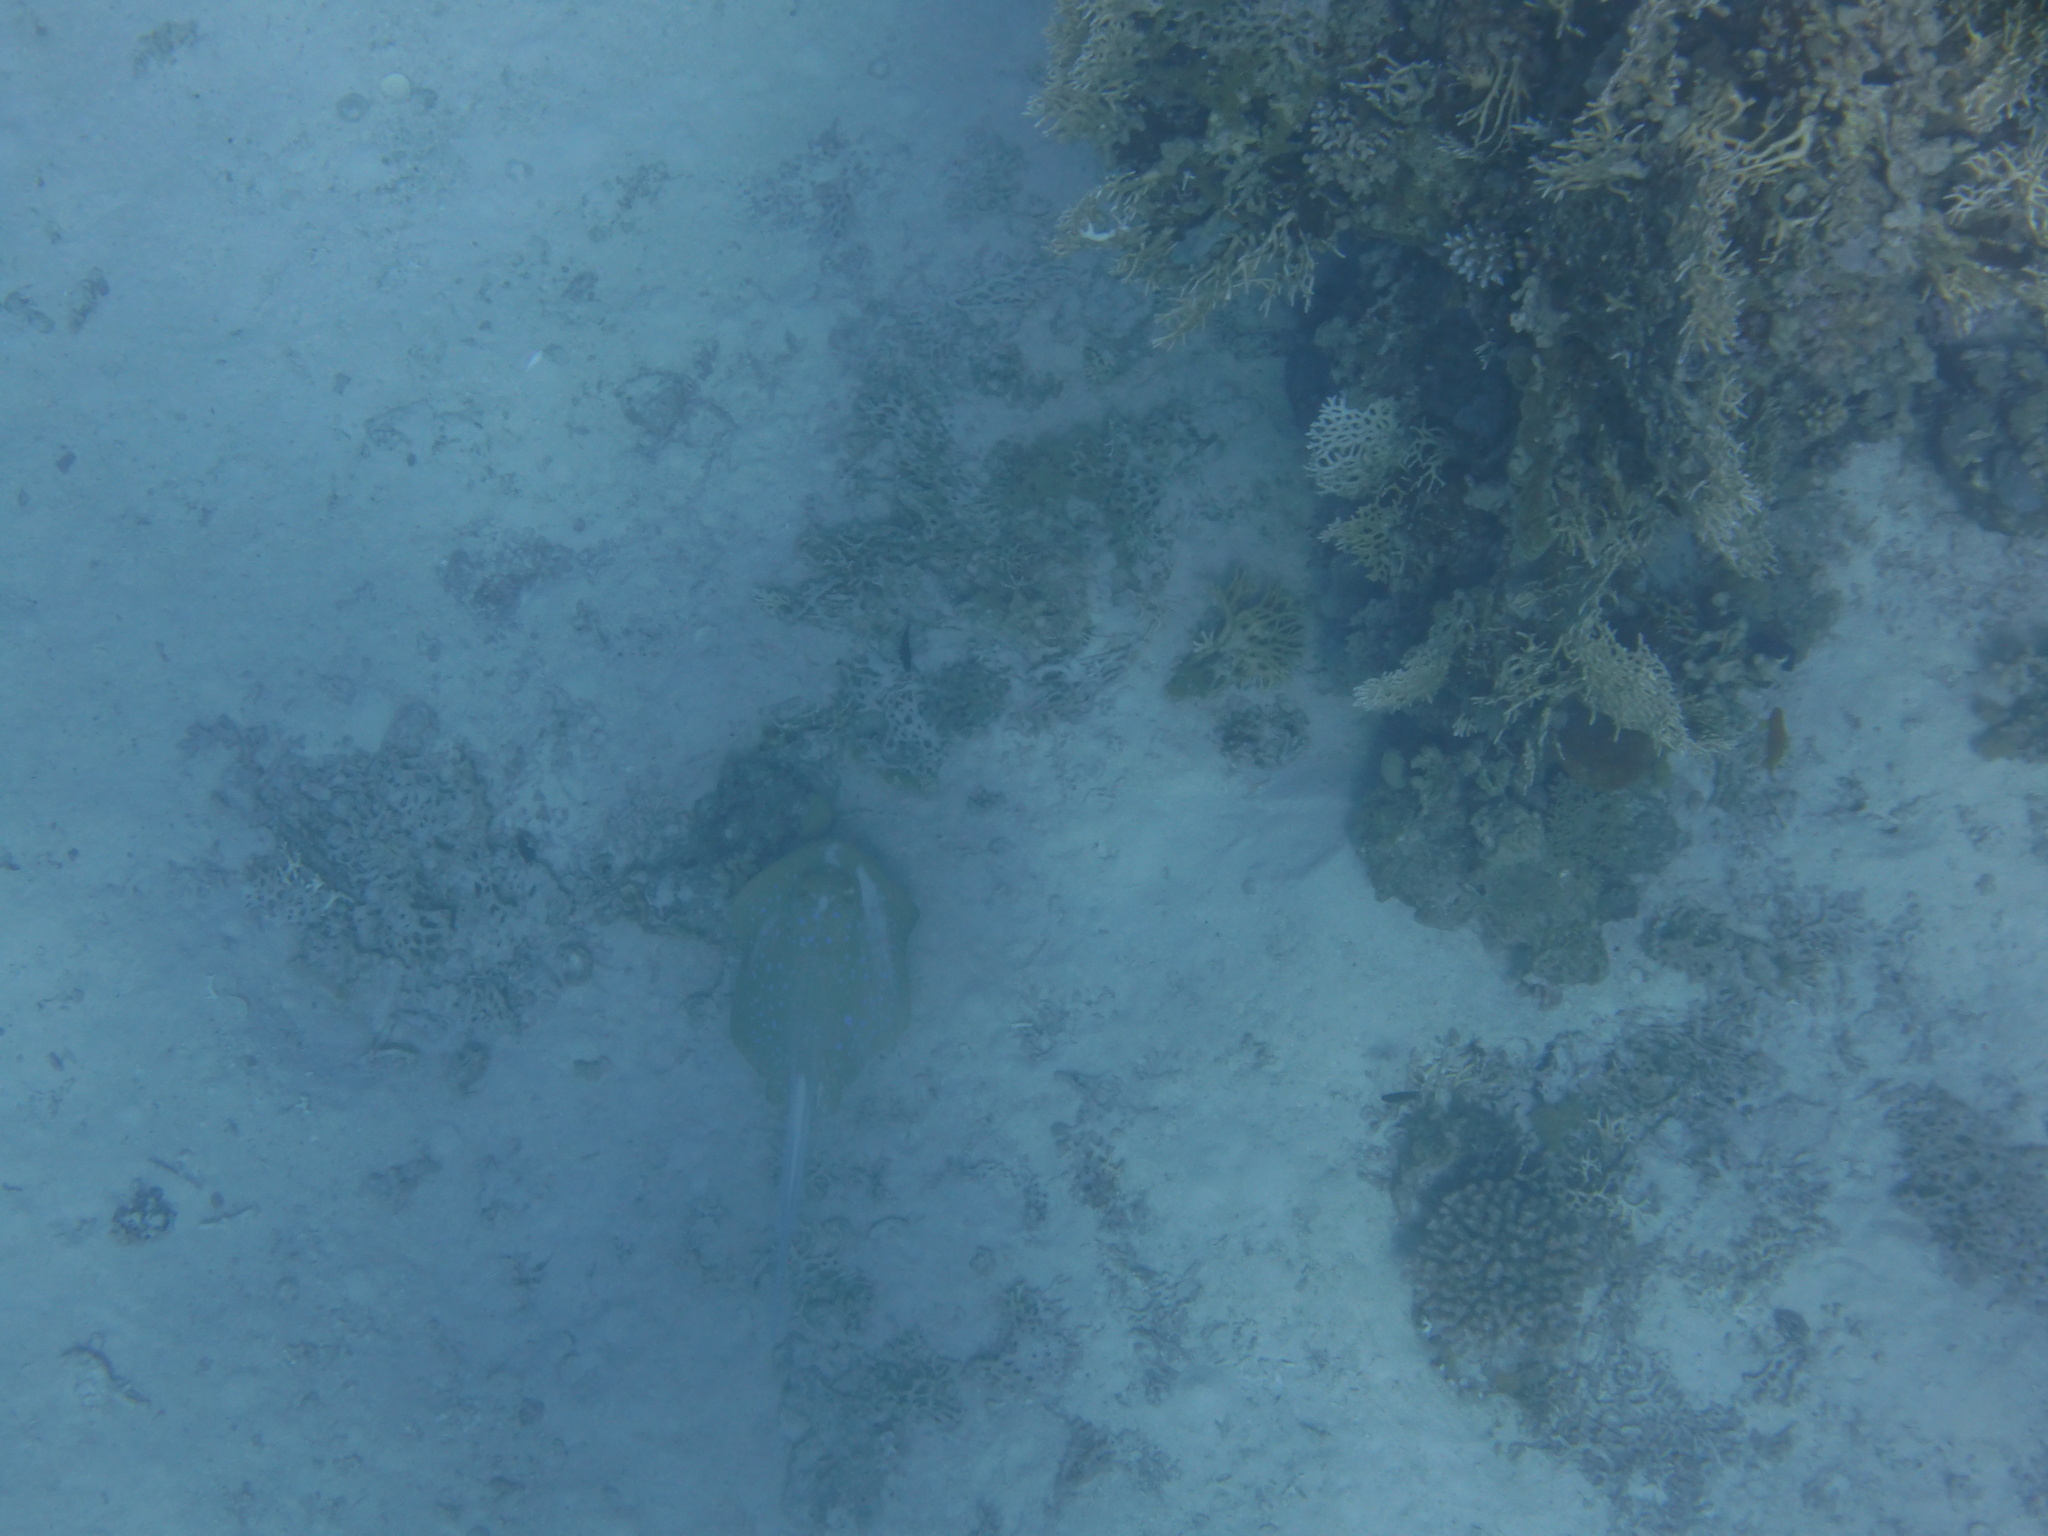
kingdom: Animalia
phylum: Chordata
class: Elasmobranchii
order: Myliobatiformes
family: Dasyatidae
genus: Taeniura
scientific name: Taeniura lymma
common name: Bluespotted ribbontail ray
